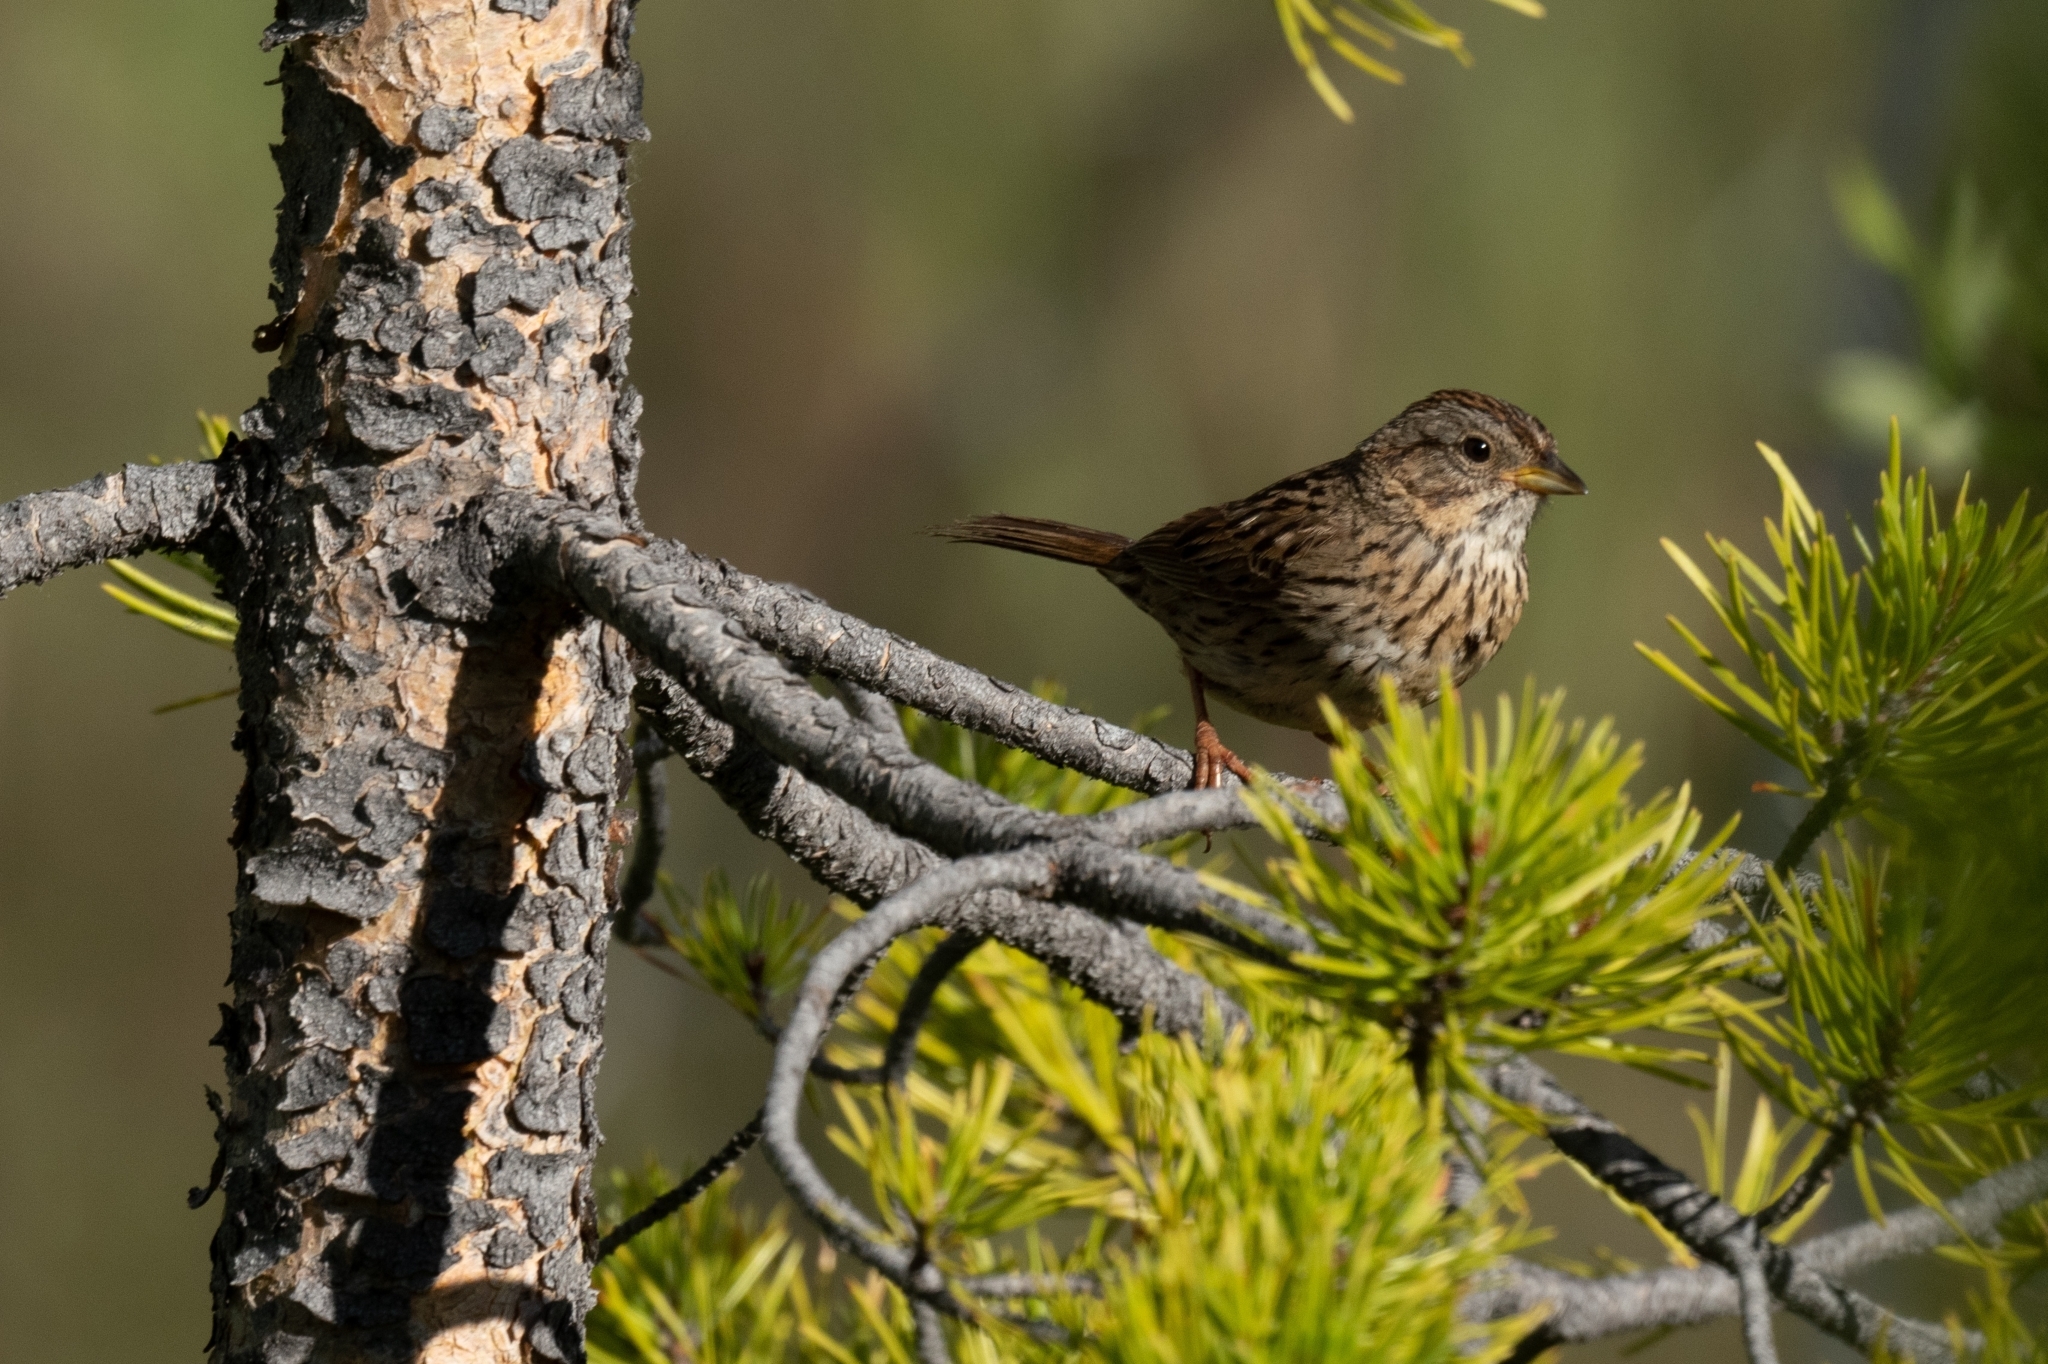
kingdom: Animalia
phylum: Chordata
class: Aves
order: Passeriformes
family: Passerellidae
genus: Melospiza
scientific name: Melospiza lincolnii
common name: Lincoln's sparrow
